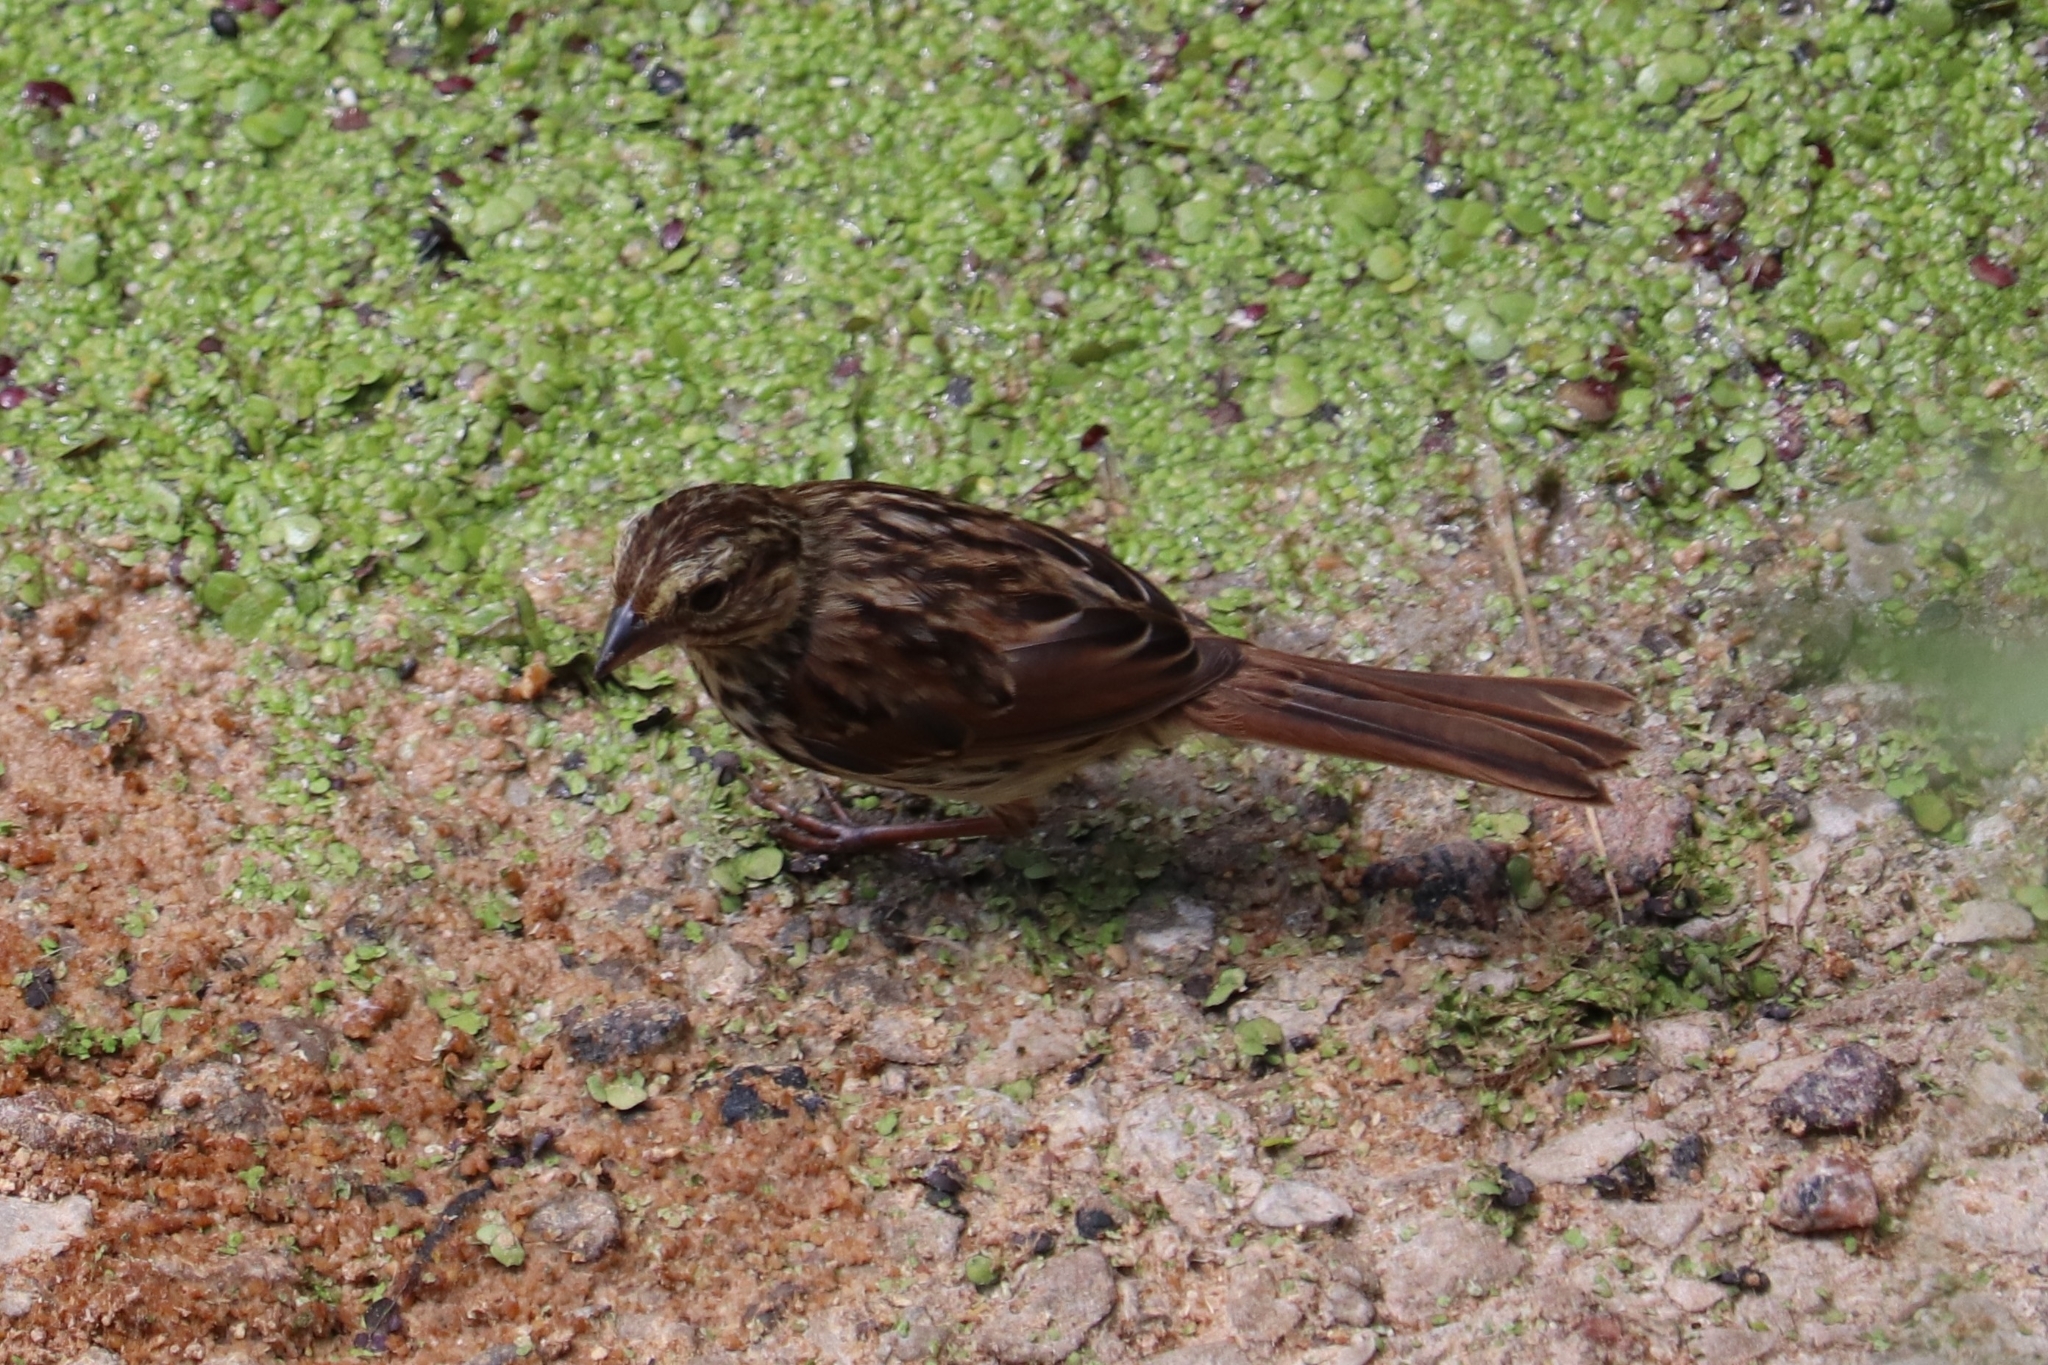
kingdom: Animalia
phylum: Chordata
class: Aves
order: Passeriformes
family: Passerellidae
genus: Melospiza
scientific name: Melospiza melodia
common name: Song sparrow
